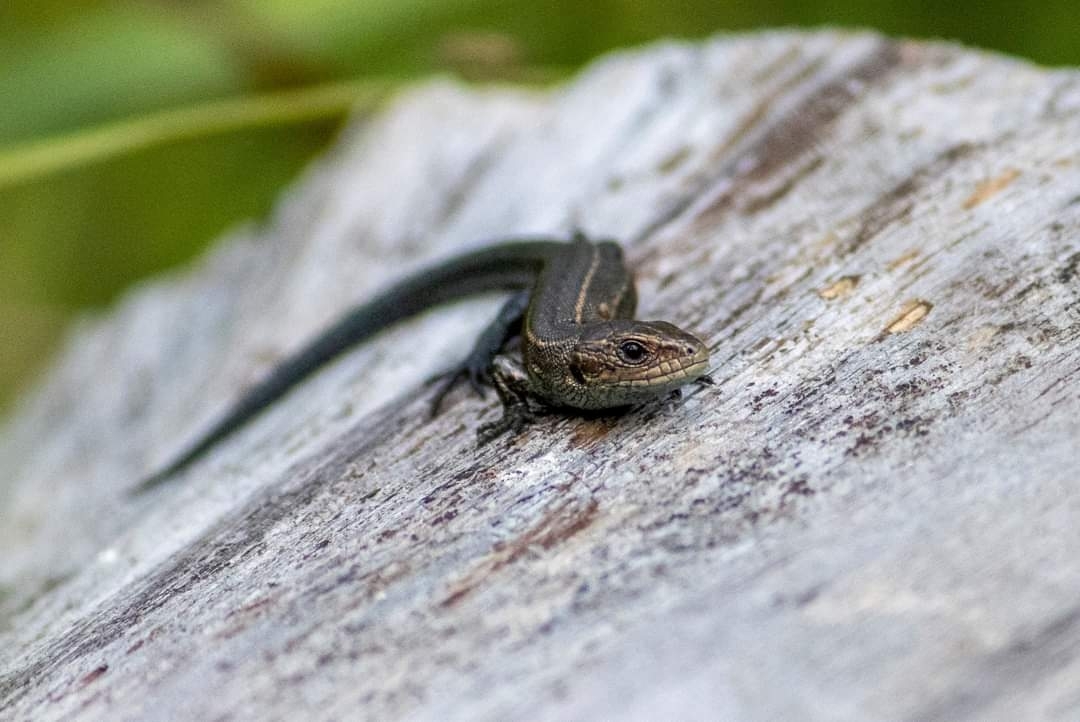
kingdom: Animalia
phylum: Chordata
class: Squamata
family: Lacertidae
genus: Zootoca
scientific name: Zootoca vivipara
